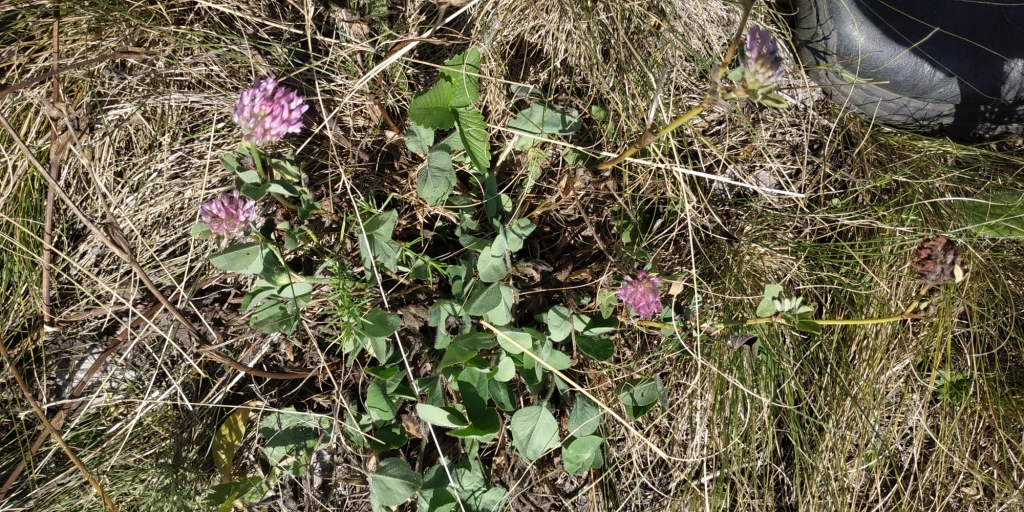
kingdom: Plantae
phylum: Tracheophyta
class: Magnoliopsida
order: Fabales
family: Fabaceae
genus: Trifolium
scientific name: Trifolium pratense
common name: Red clover
